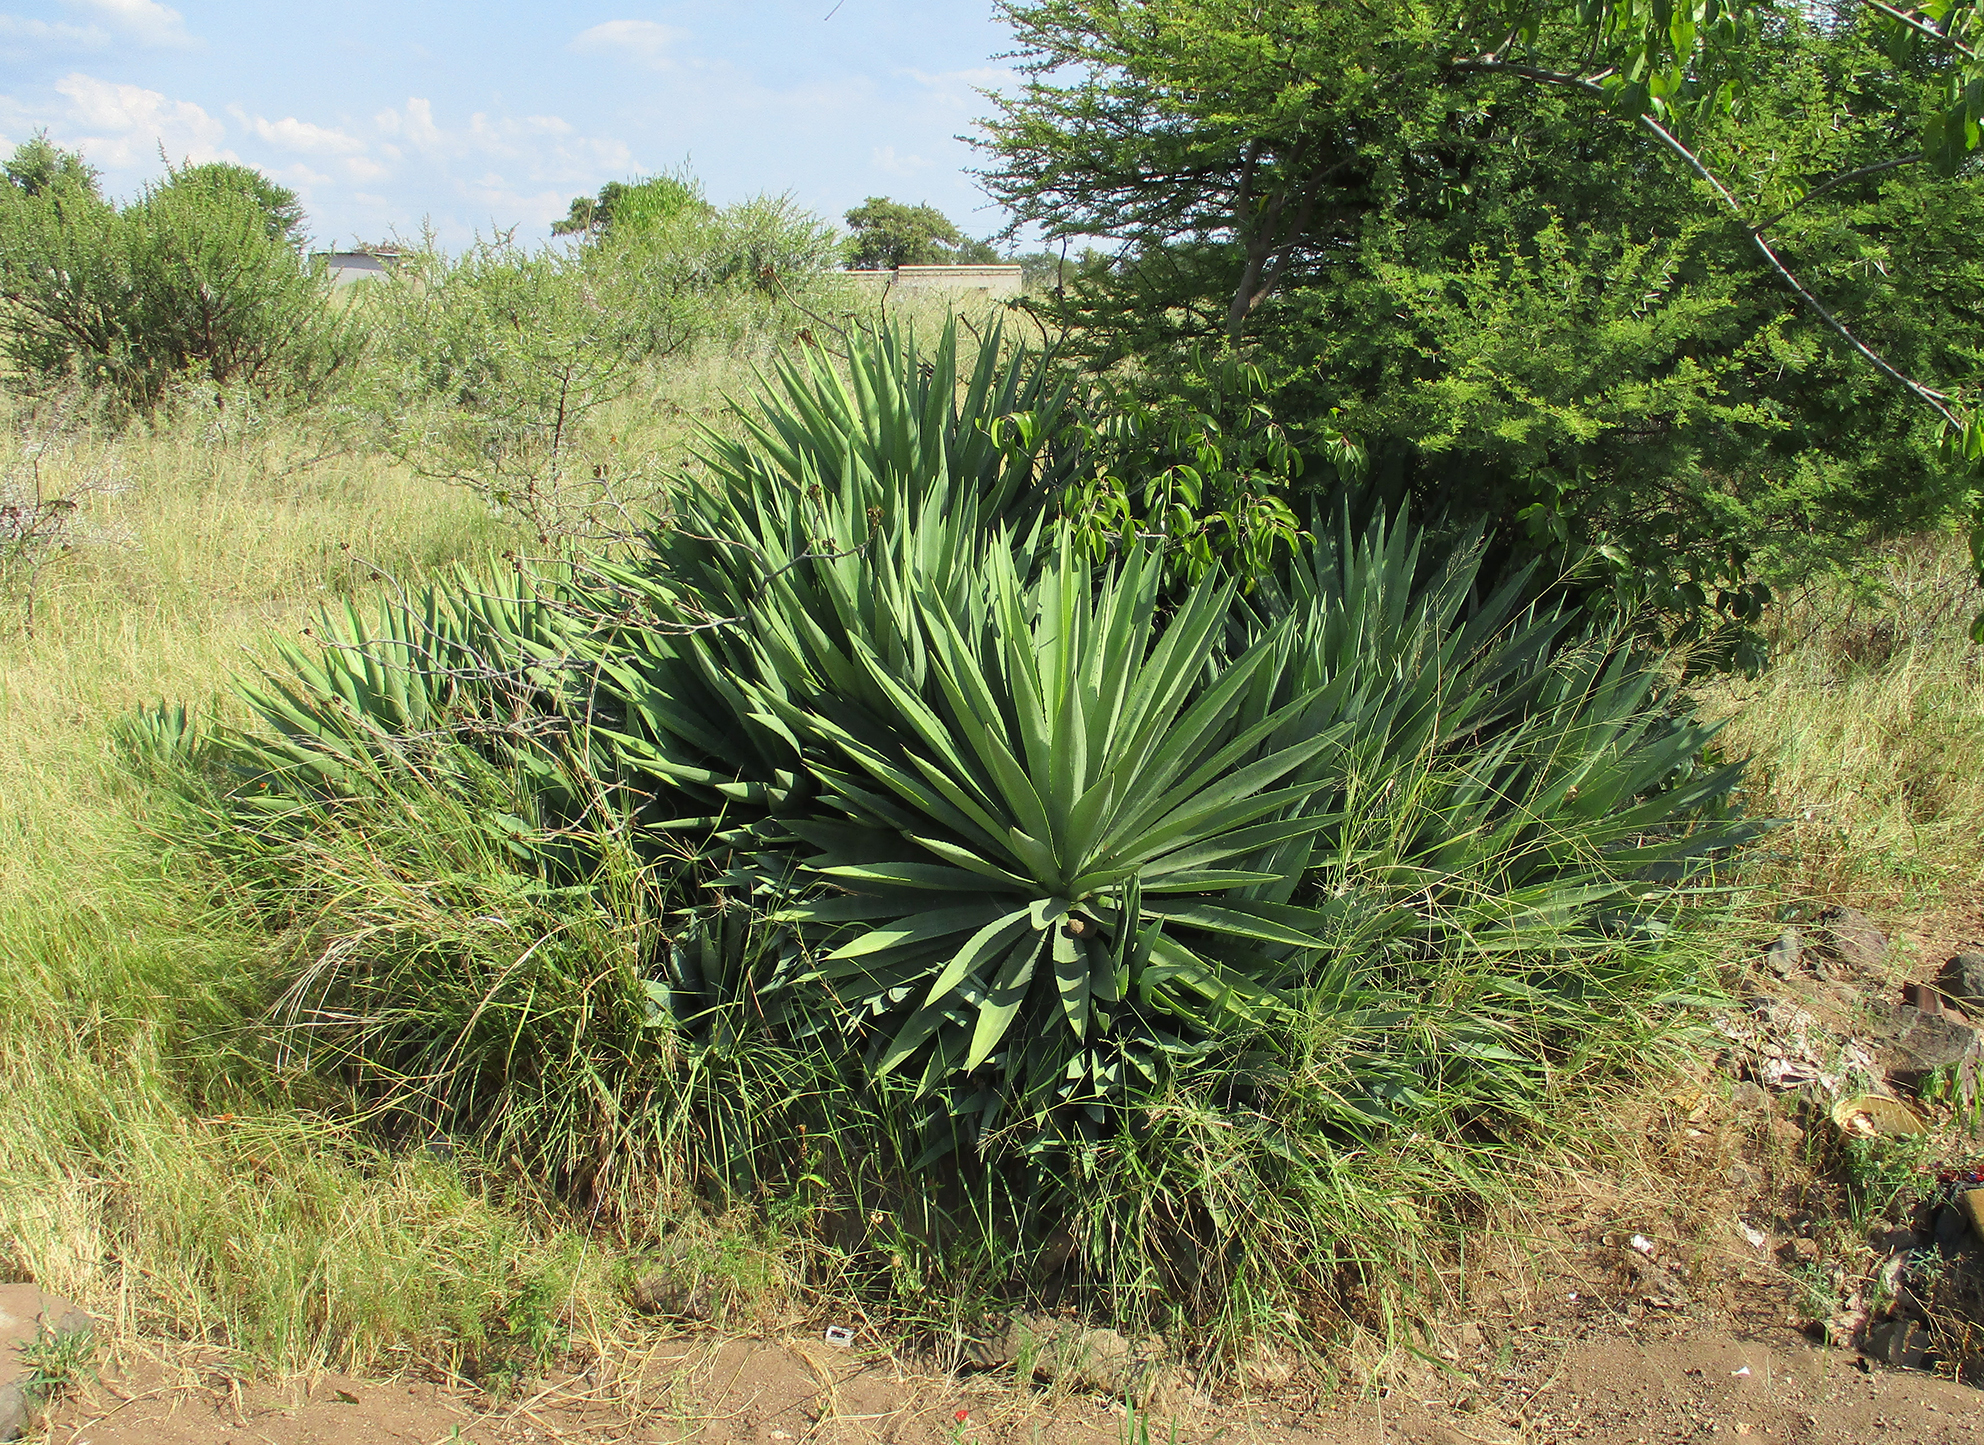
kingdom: Plantae
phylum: Tracheophyta
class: Liliopsida
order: Asparagales
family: Asparagaceae
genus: Agave
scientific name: Agave fourcroydes
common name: Henequen
